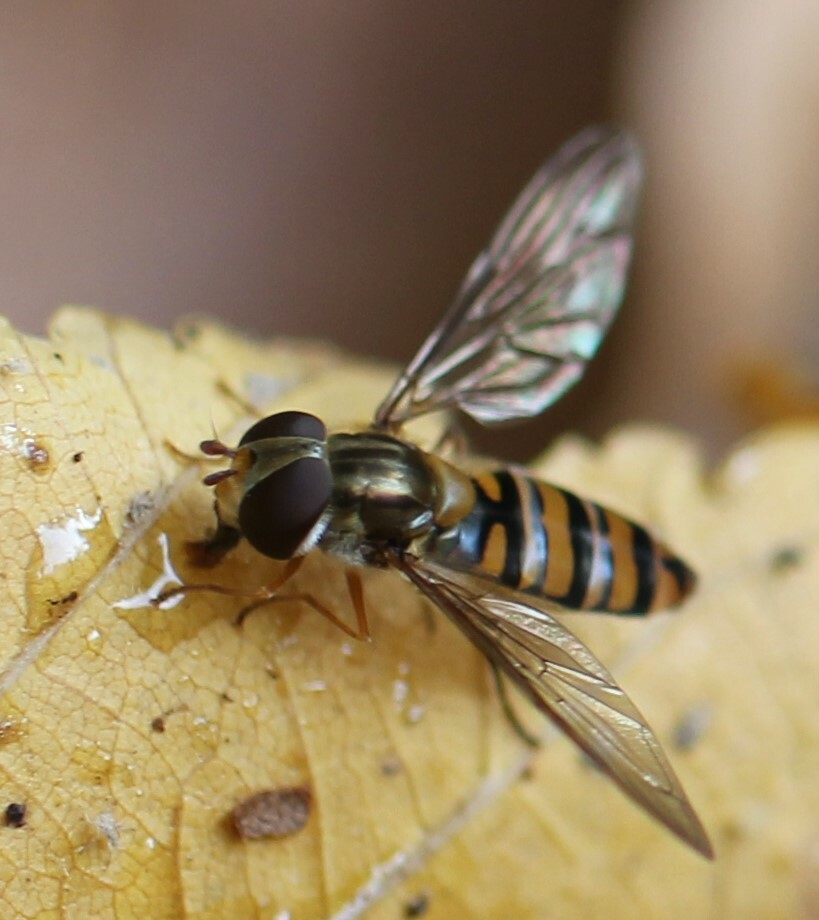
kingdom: Animalia
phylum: Arthropoda
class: Insecta
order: Diptera
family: Syrphidae
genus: Episyrphus
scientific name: Episyrphus balteatus
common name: Marmalade hoverfly
